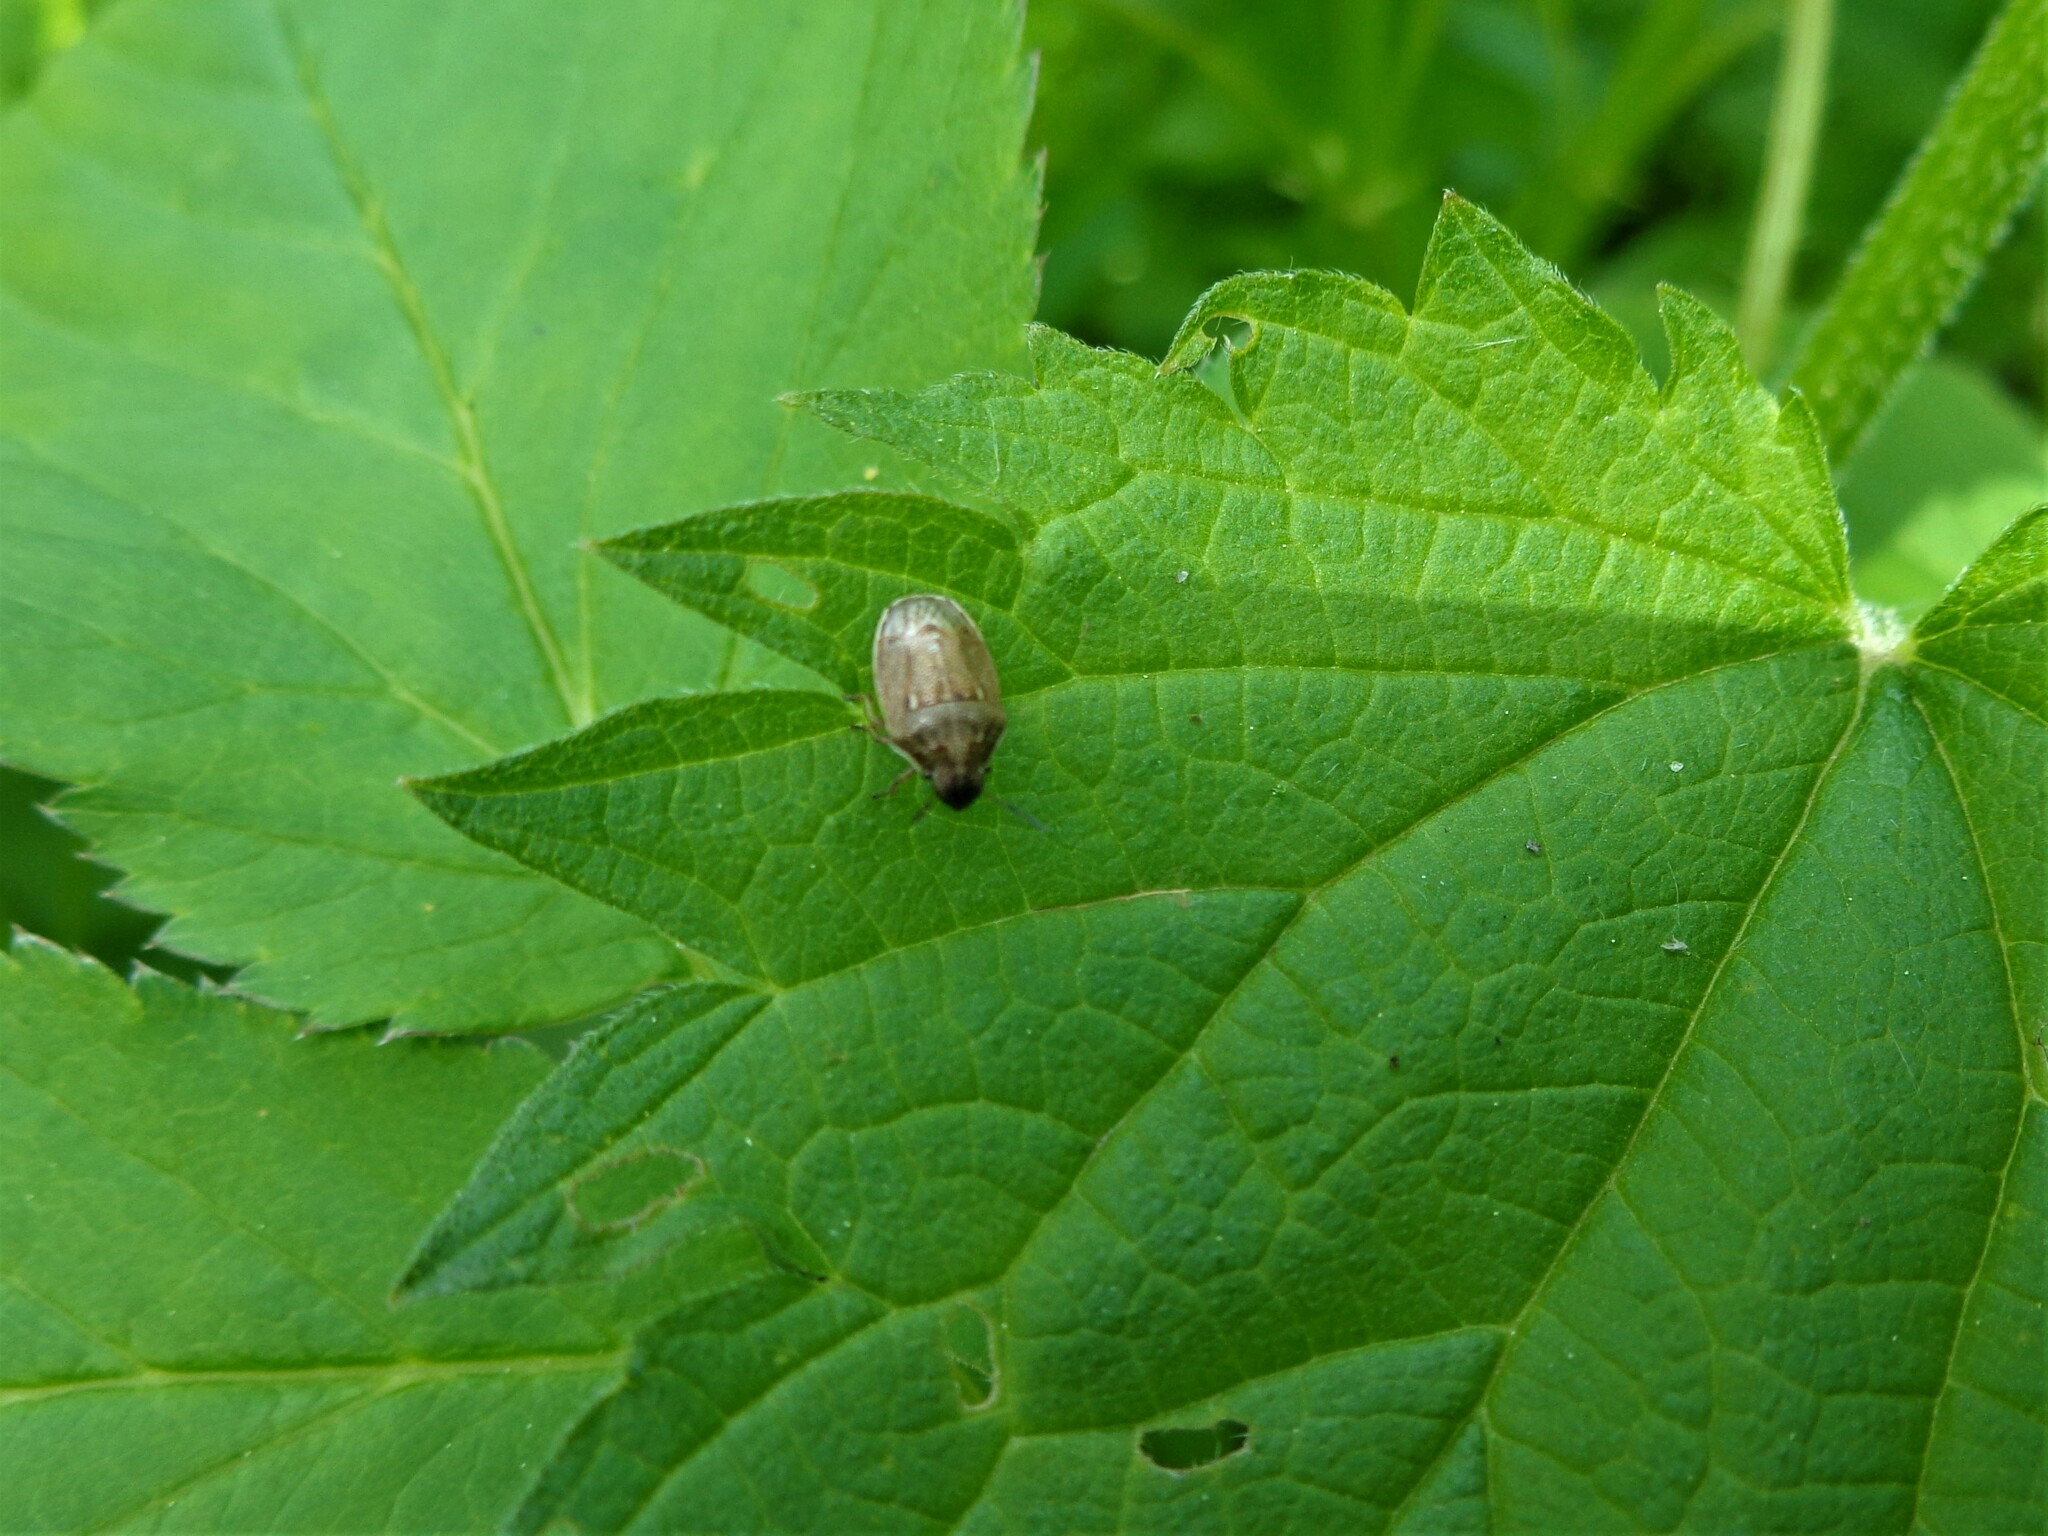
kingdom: Animalia
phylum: Arthropoda
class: Insecta
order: Hemiptera
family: Pentatomidae
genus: Neottiglossa
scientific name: Neottiglossa pusilla
